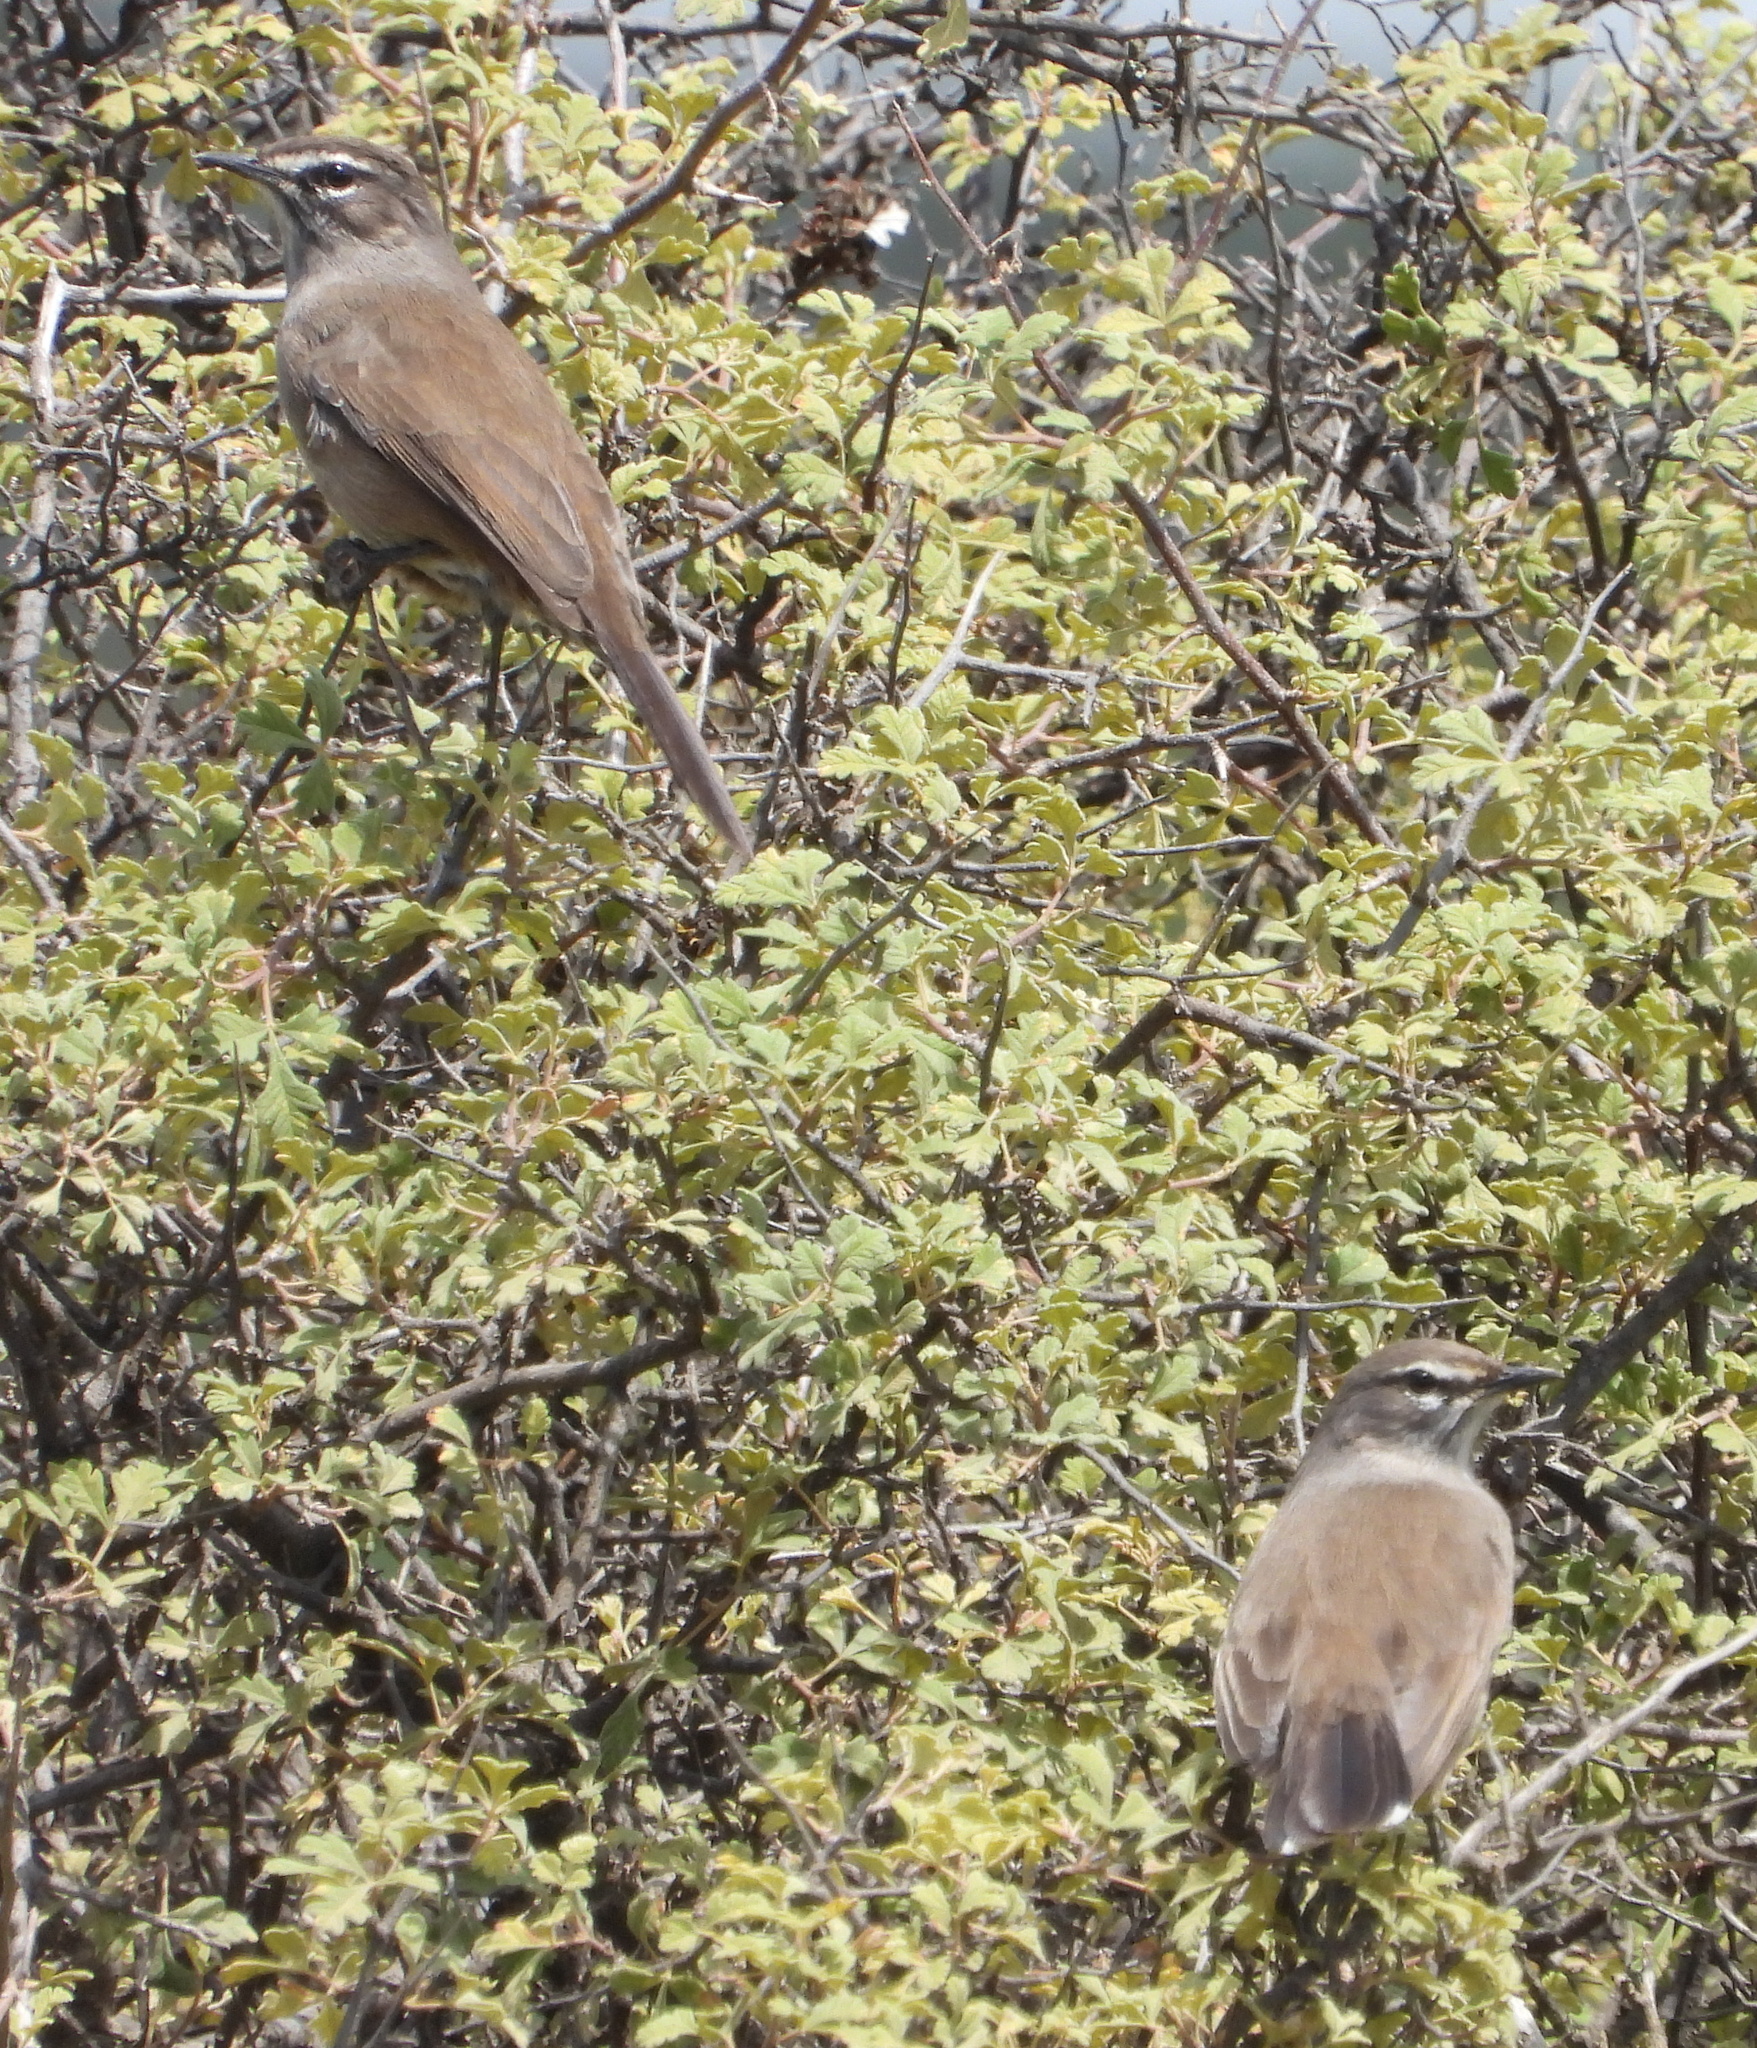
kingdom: Animalia
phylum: Chordata
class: Aves
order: Passeriformes
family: Muscicapidae
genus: Erythropygia
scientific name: Erythropygia coryphoeus
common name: Karoo scrub robin
